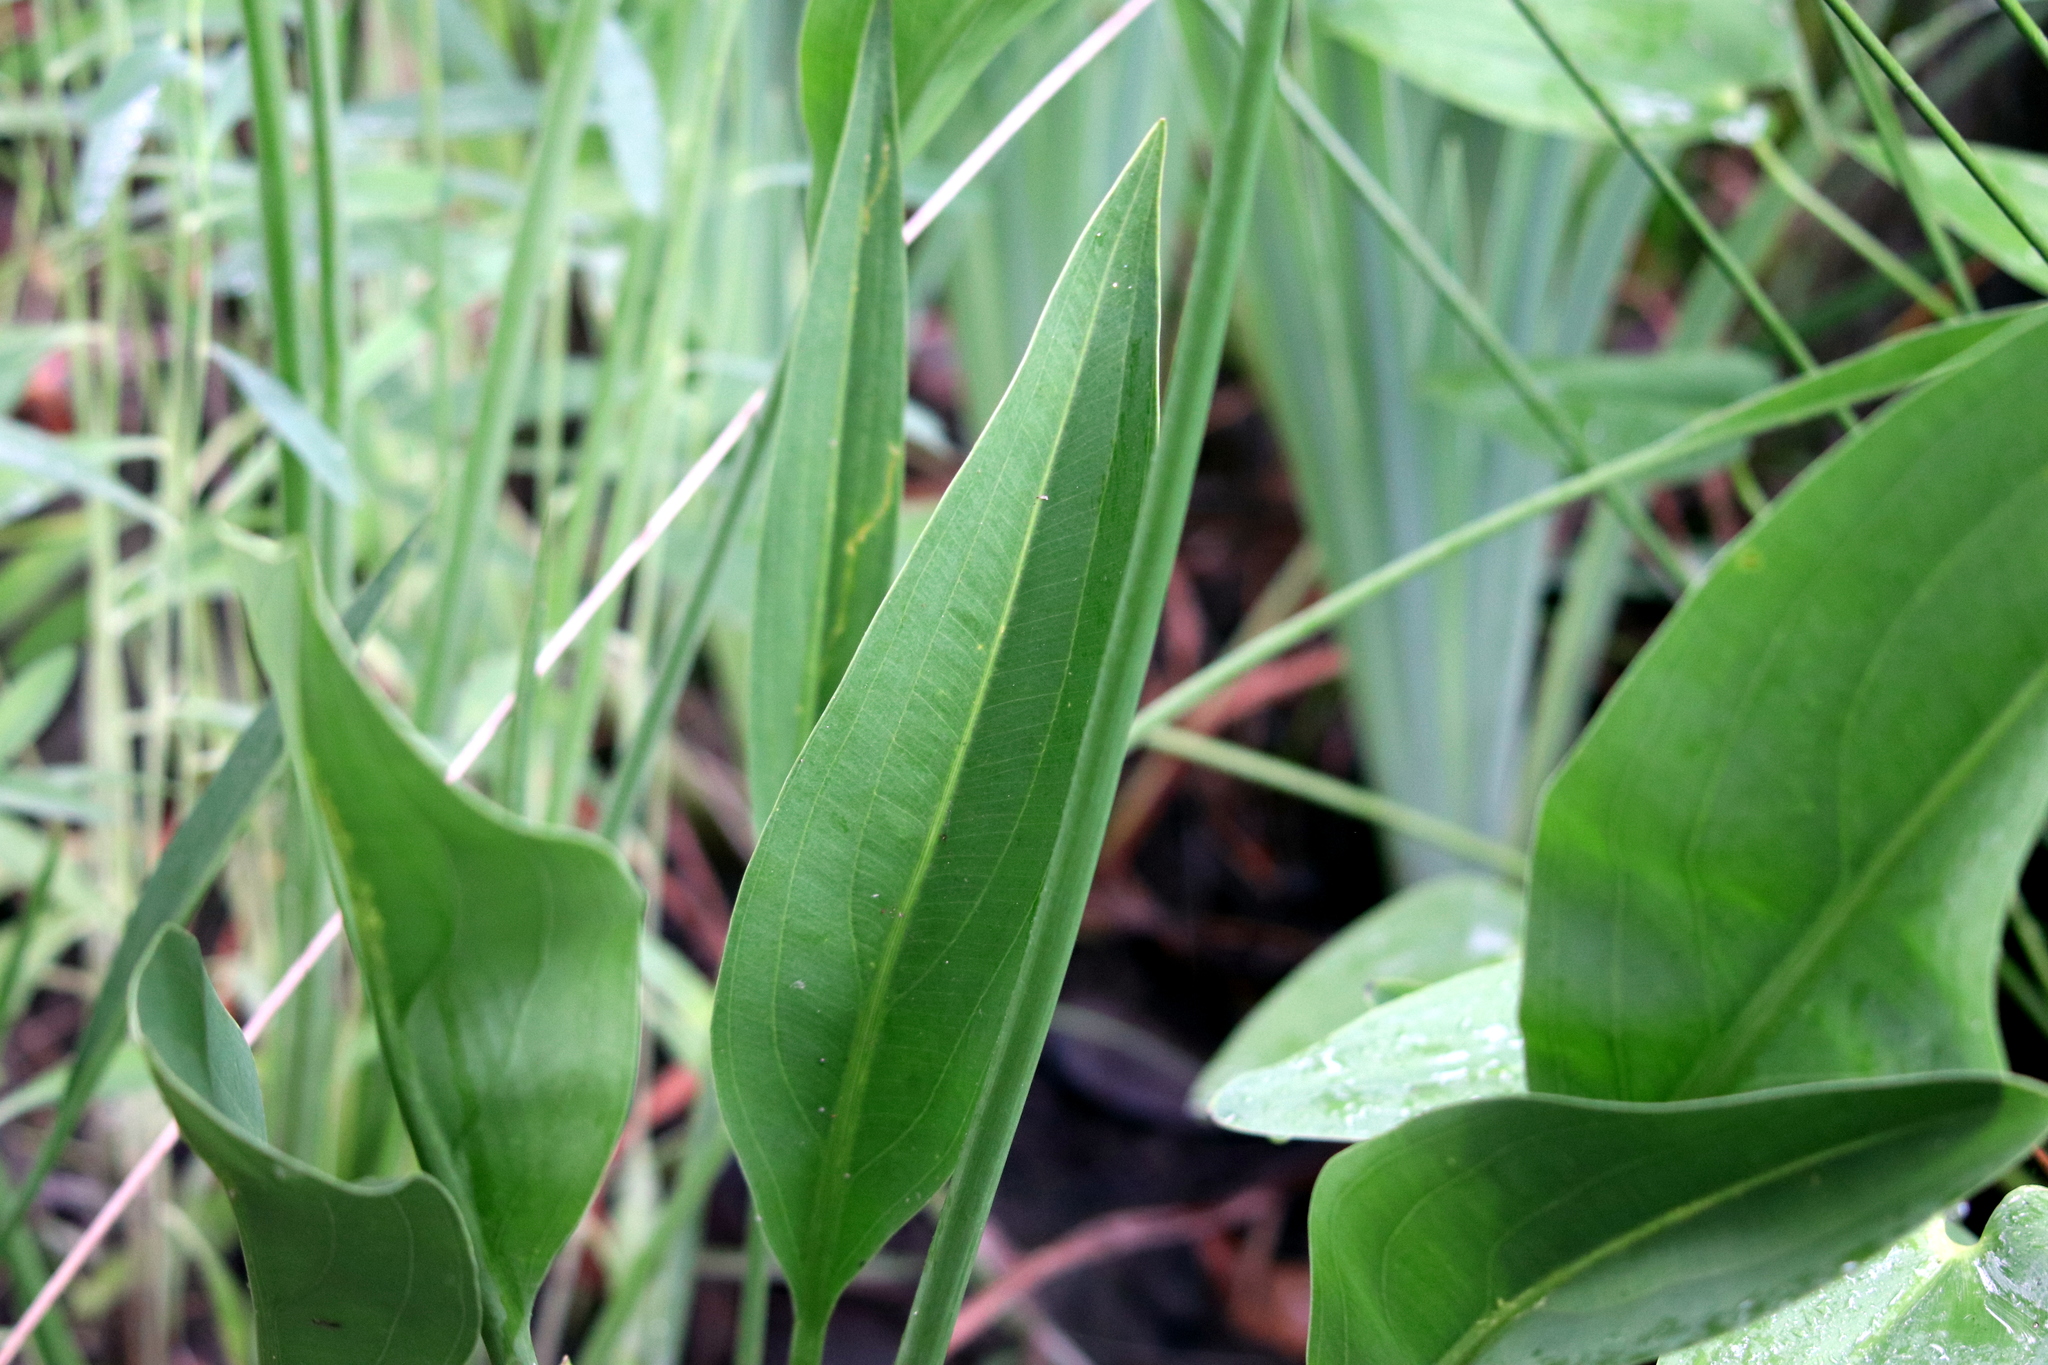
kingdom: Plantae
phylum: Tracheophyta
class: Liliopsida
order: Alismatales
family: Alismataceae
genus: Sagittaria
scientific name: Sagittaria lancifolia
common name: Lance-leaf arrowhead
